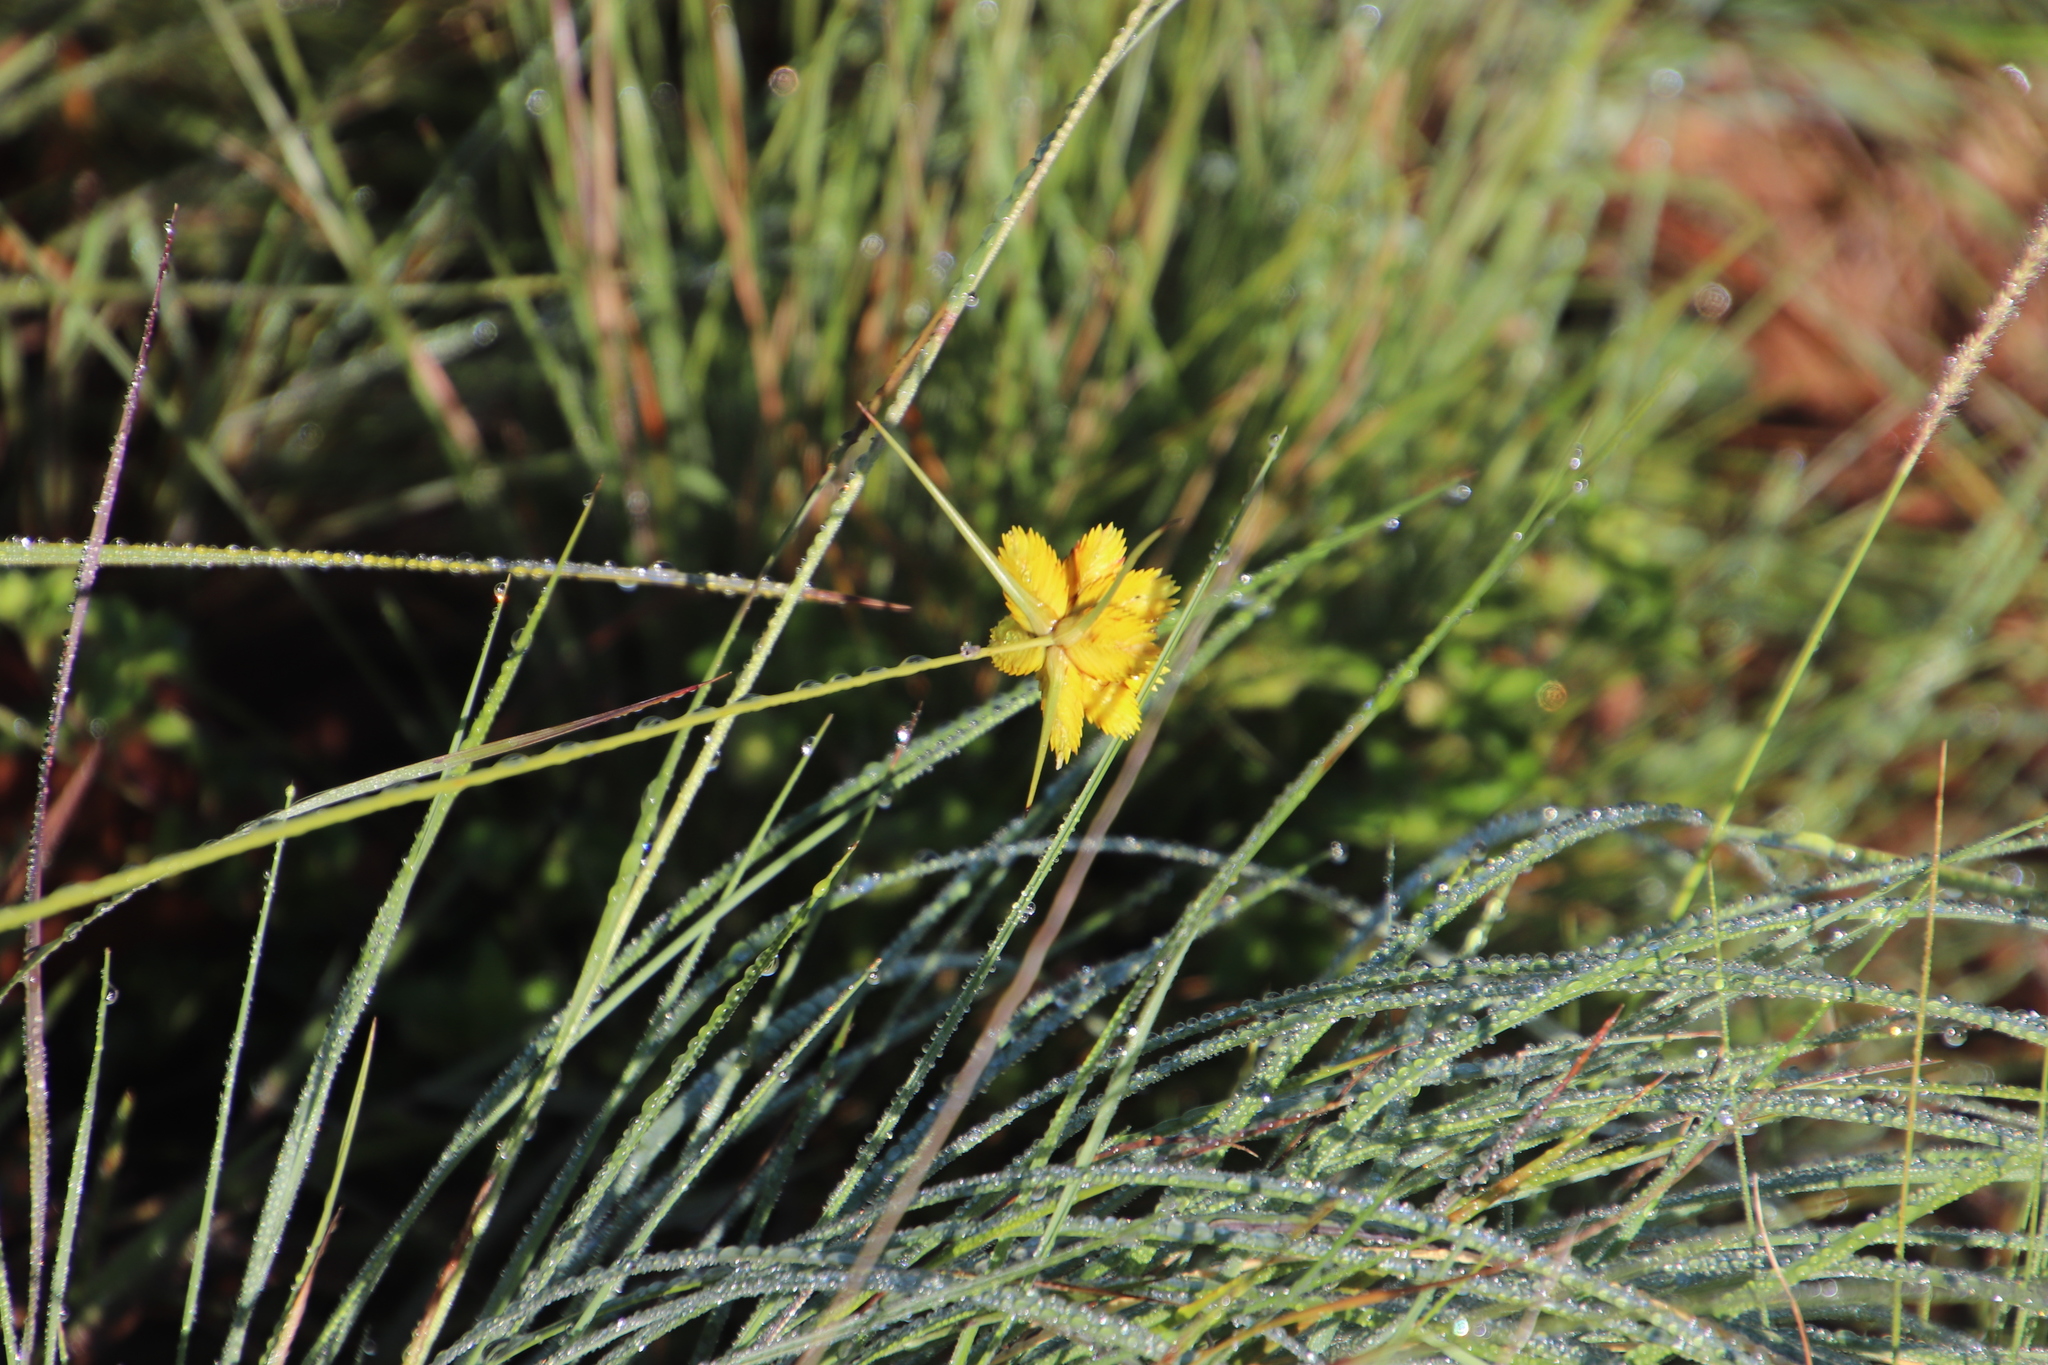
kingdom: Plantae
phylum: Tracheophyta
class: Liliopsida
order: Poales
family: Cyperaceae
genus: Cyperus
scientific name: Cyperus sphaerocephalus
